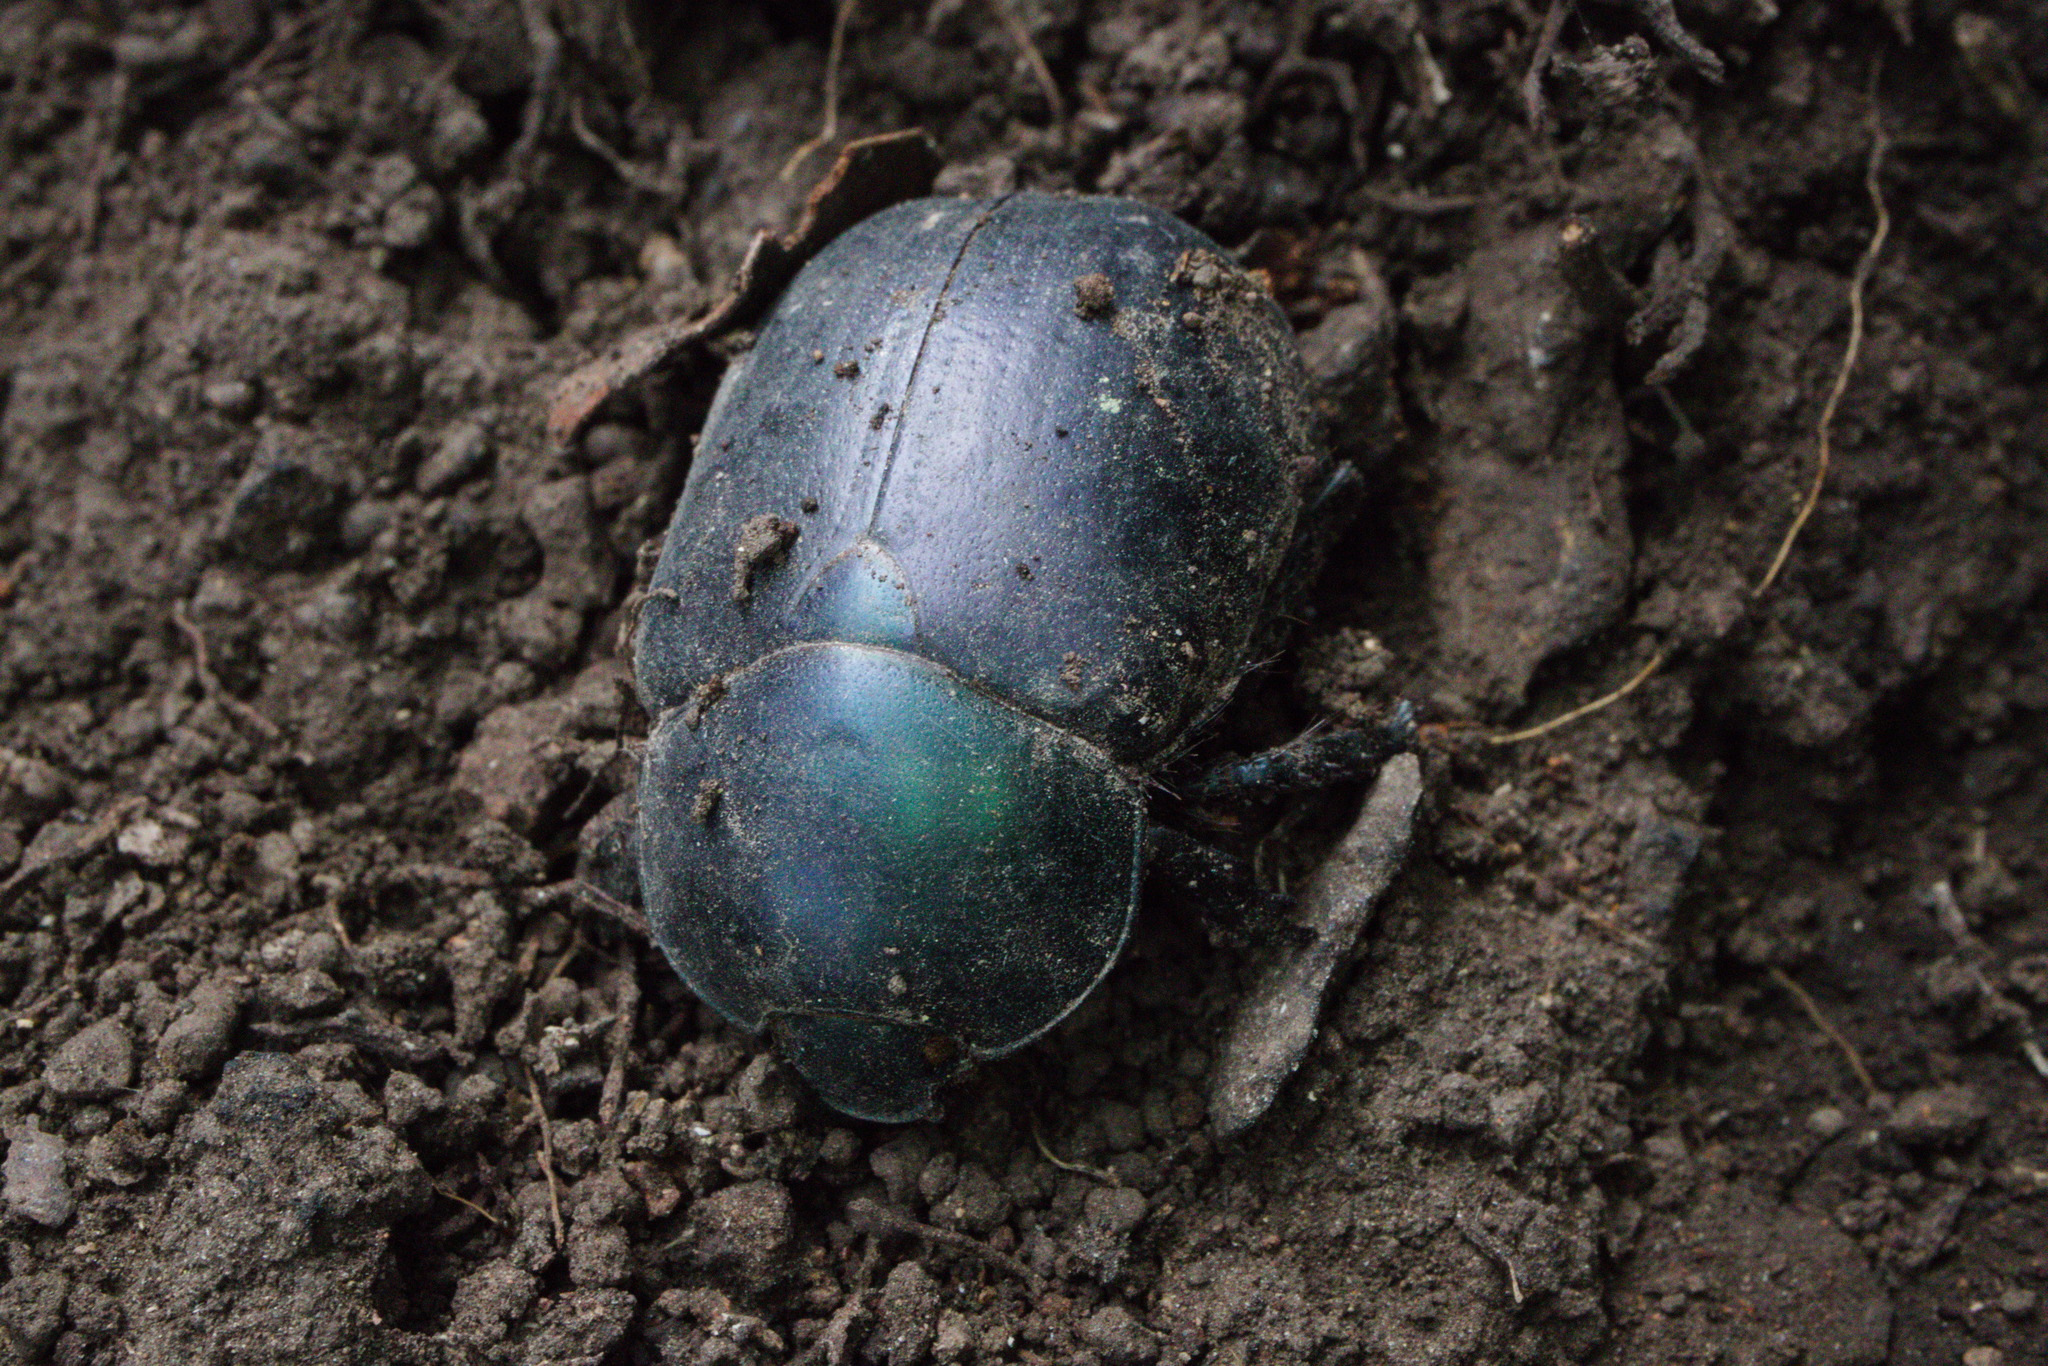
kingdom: Animalia
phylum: Arthropoda
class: Insecta
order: Coleoptera
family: Scarabaeidae
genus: Oogenius
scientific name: Oogenius chilensis
